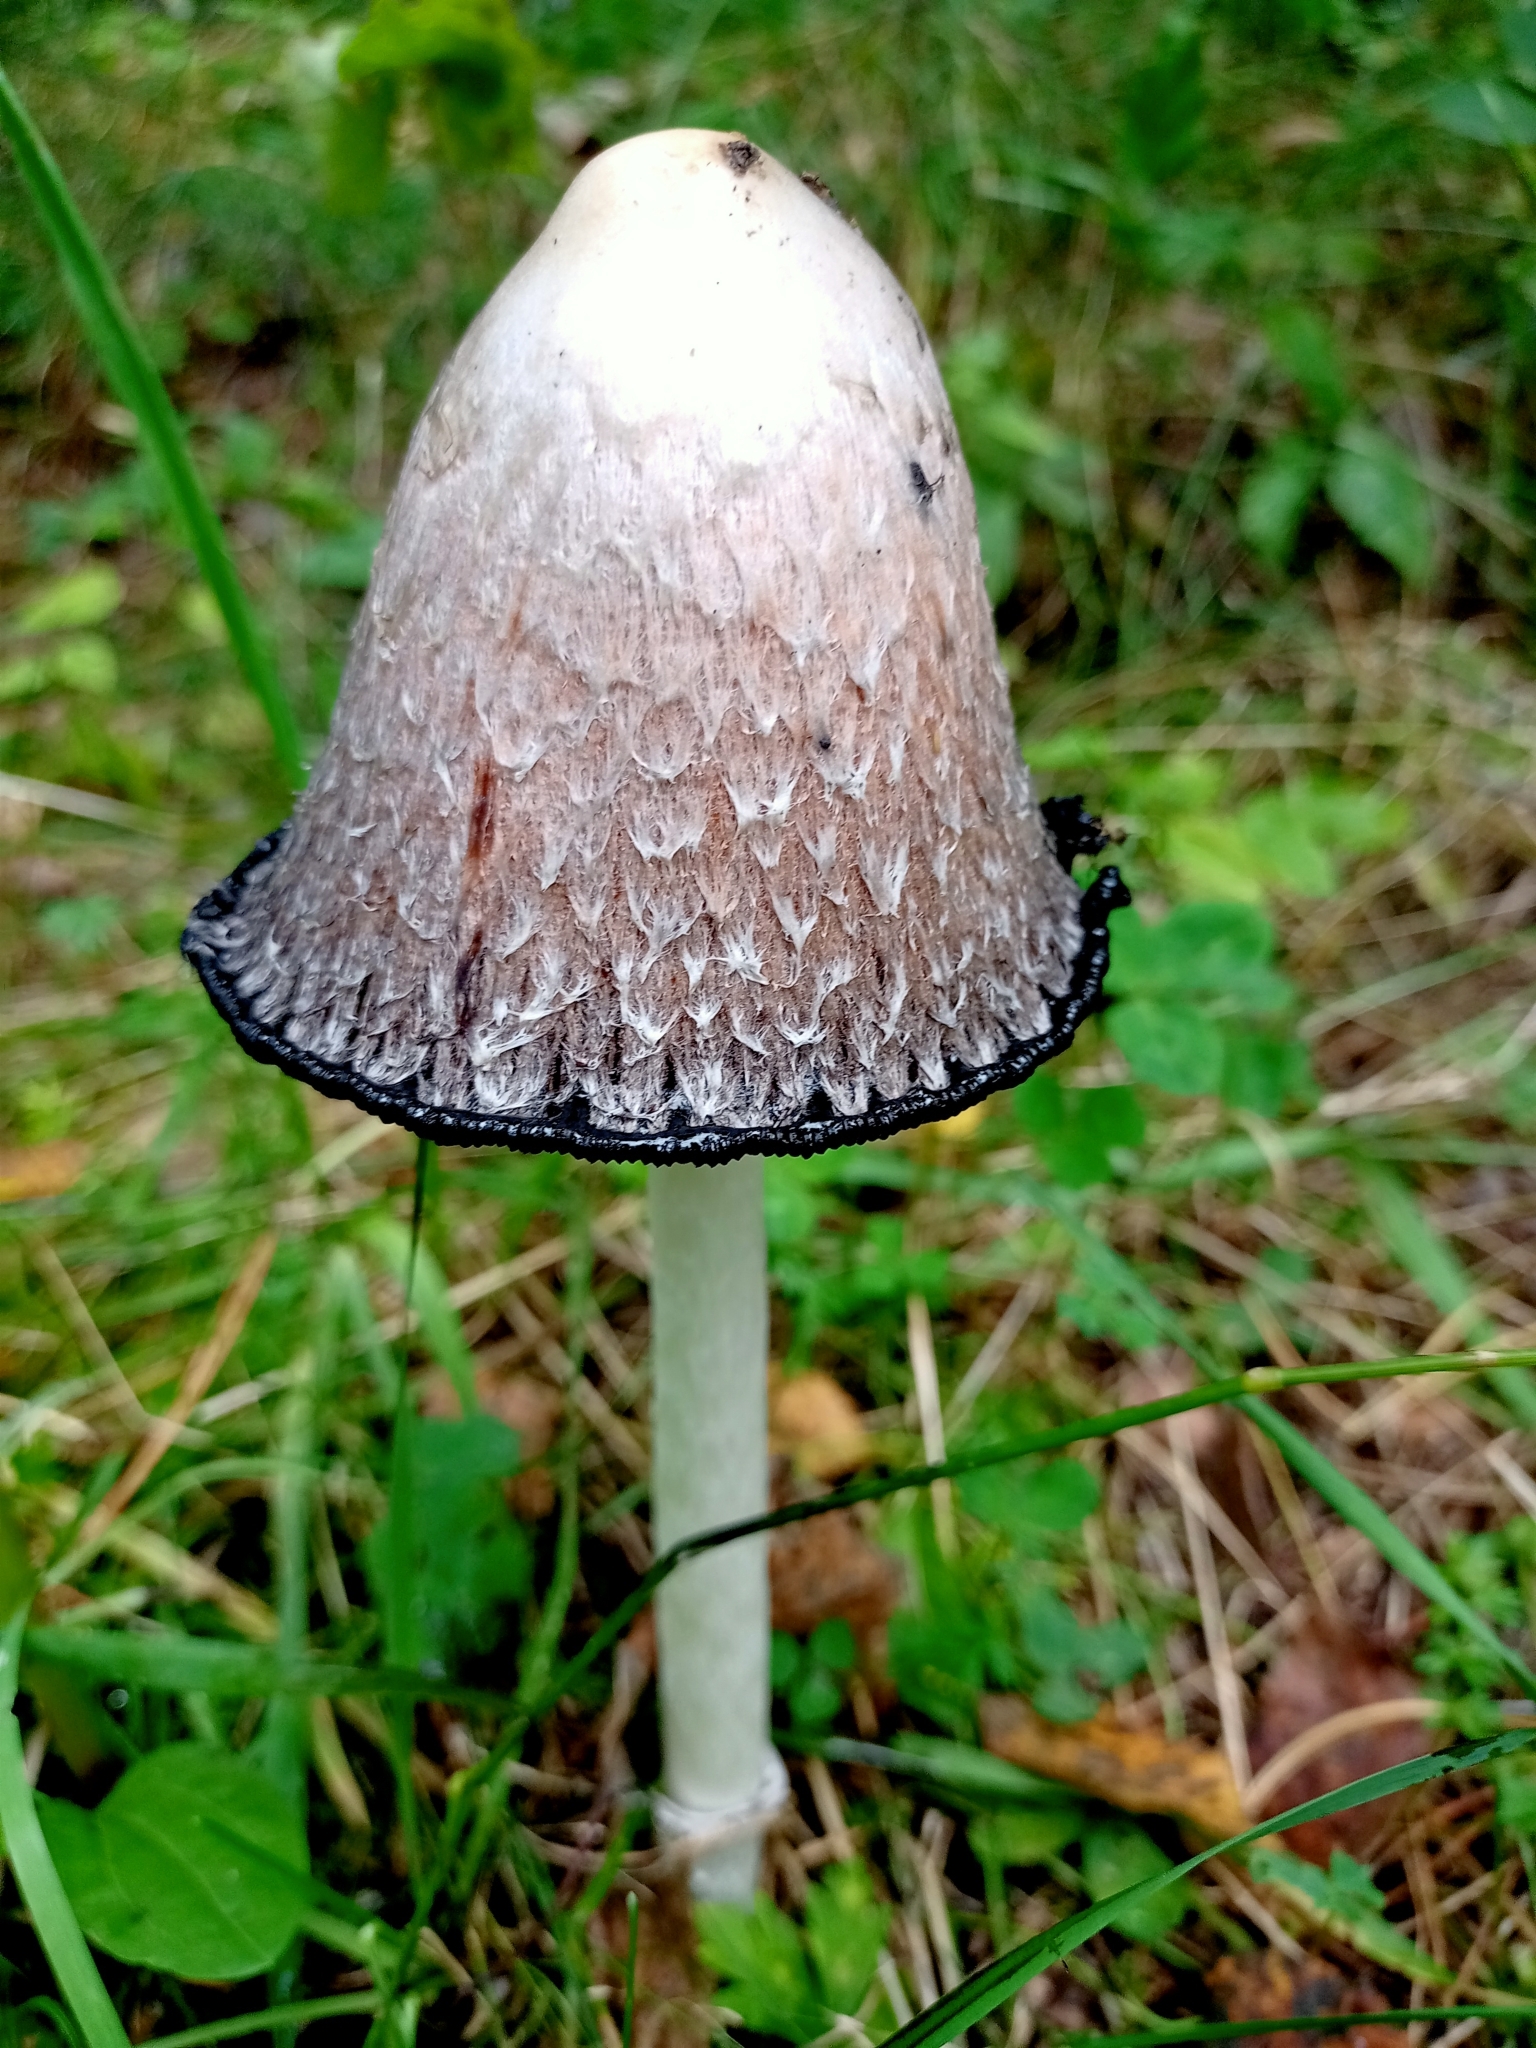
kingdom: Fungi
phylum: Basidiomycota
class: Agaricomycetes
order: Agaricales
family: Agaricaceae
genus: Coprinus
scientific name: Coprinus comatus
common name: Lawyer's wig
